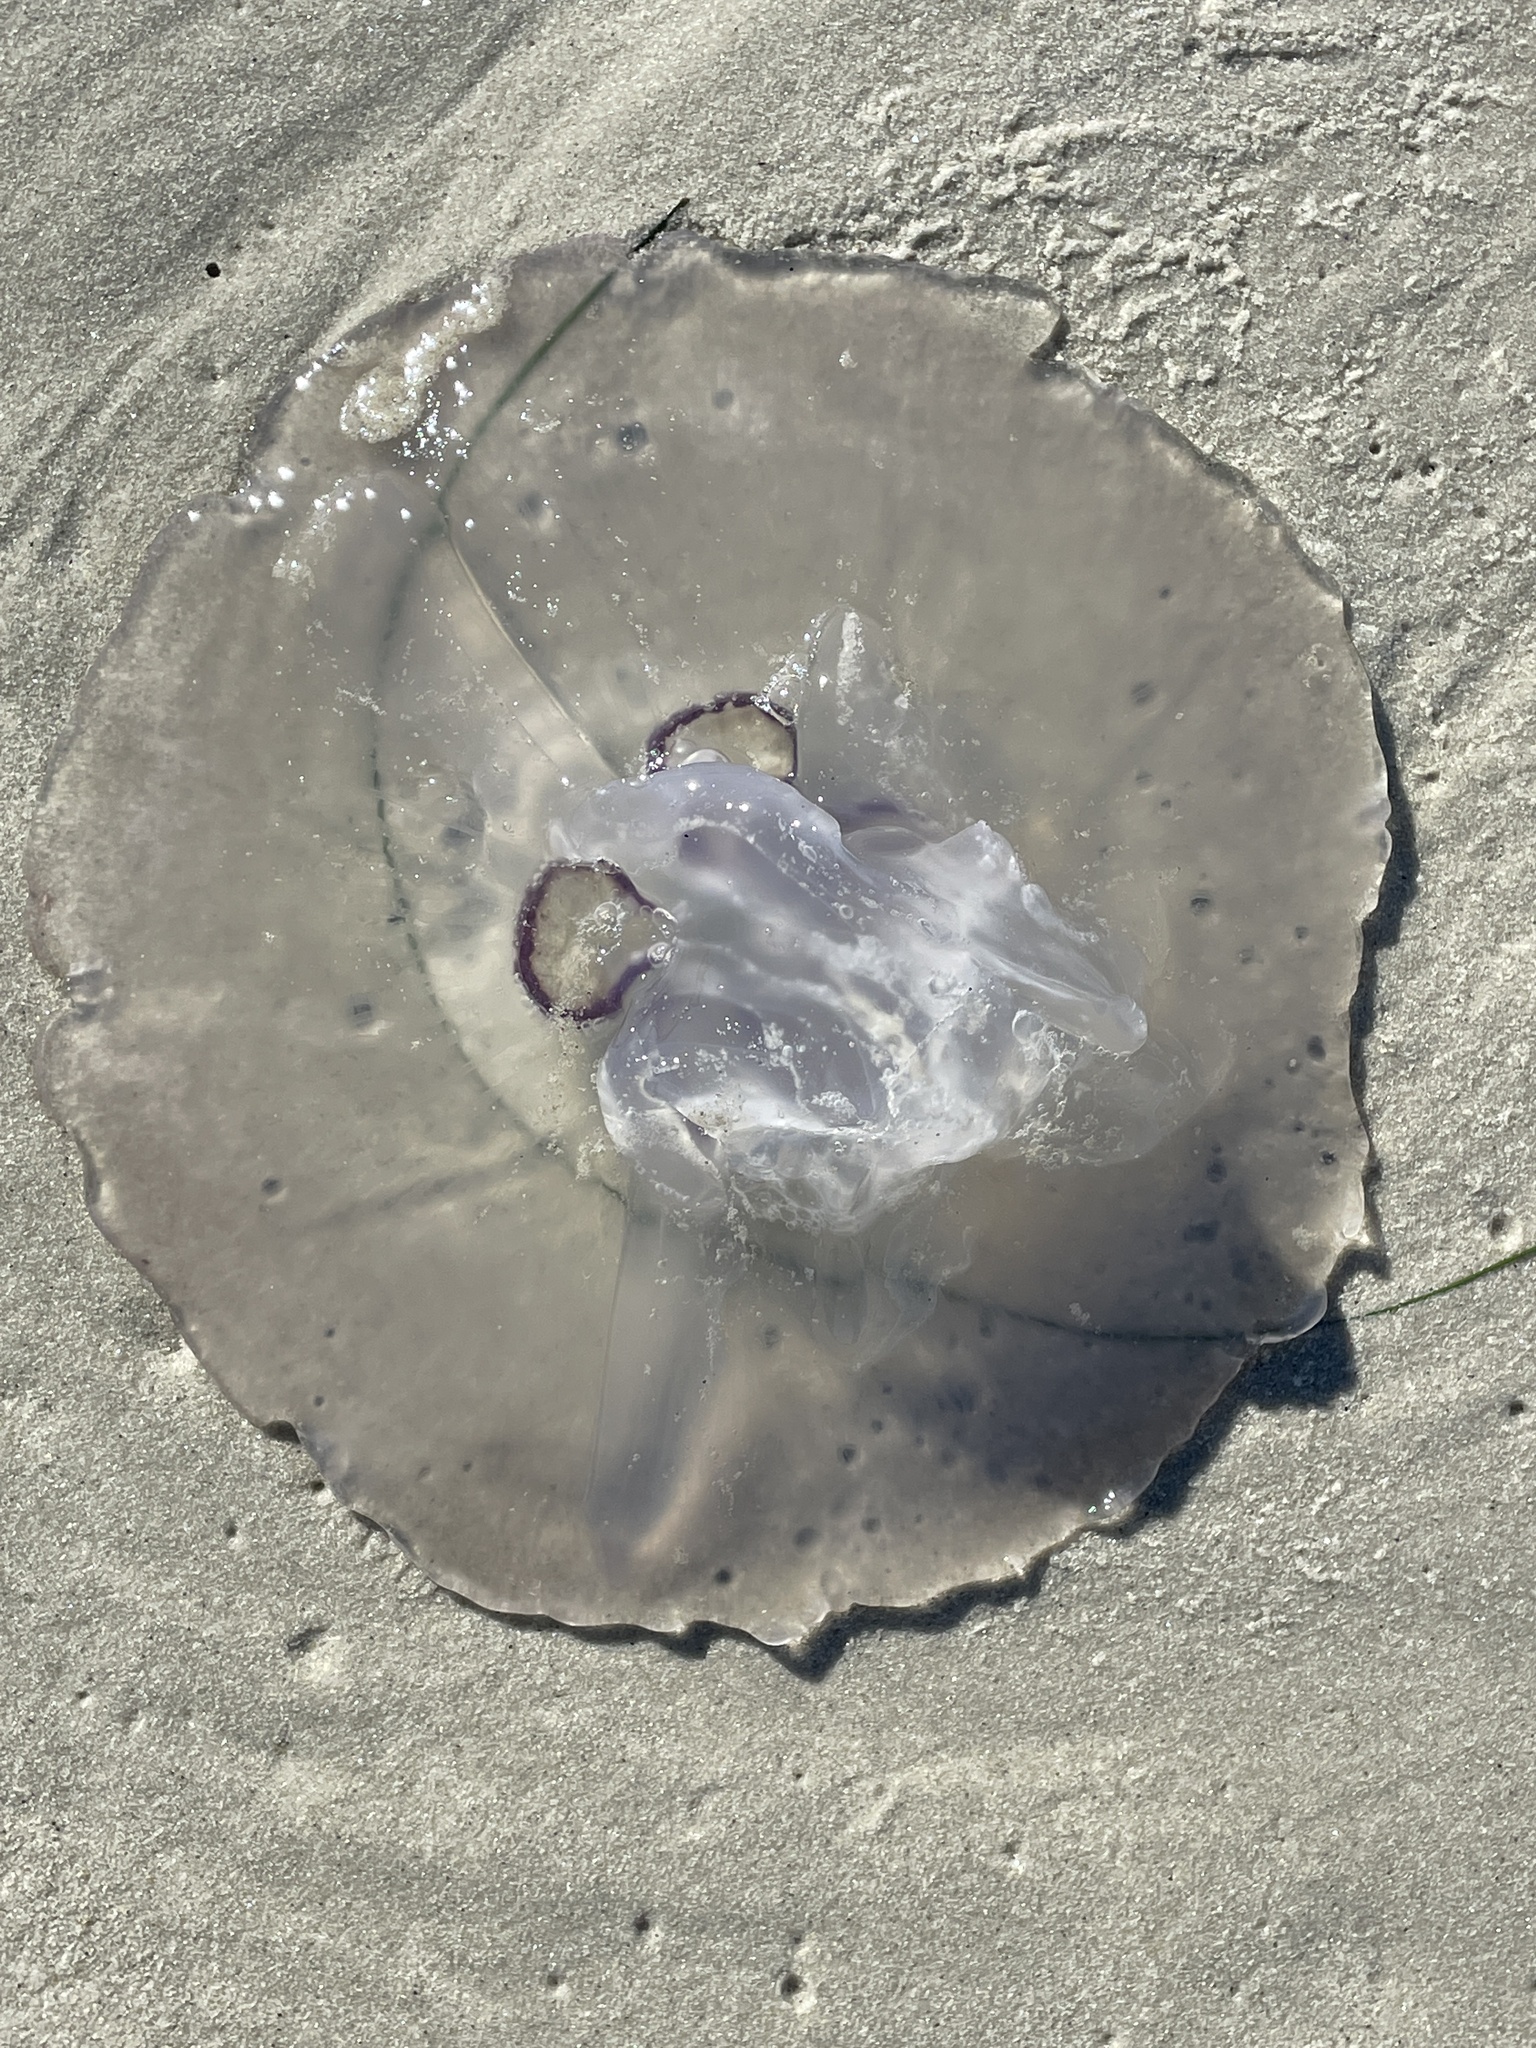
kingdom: Animalia
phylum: Cnidaria
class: Scyphozoa
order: Semaeostomeae
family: Ulmaridae
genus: Aurelia
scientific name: Aurelia labiata
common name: Pacific moon jelly
